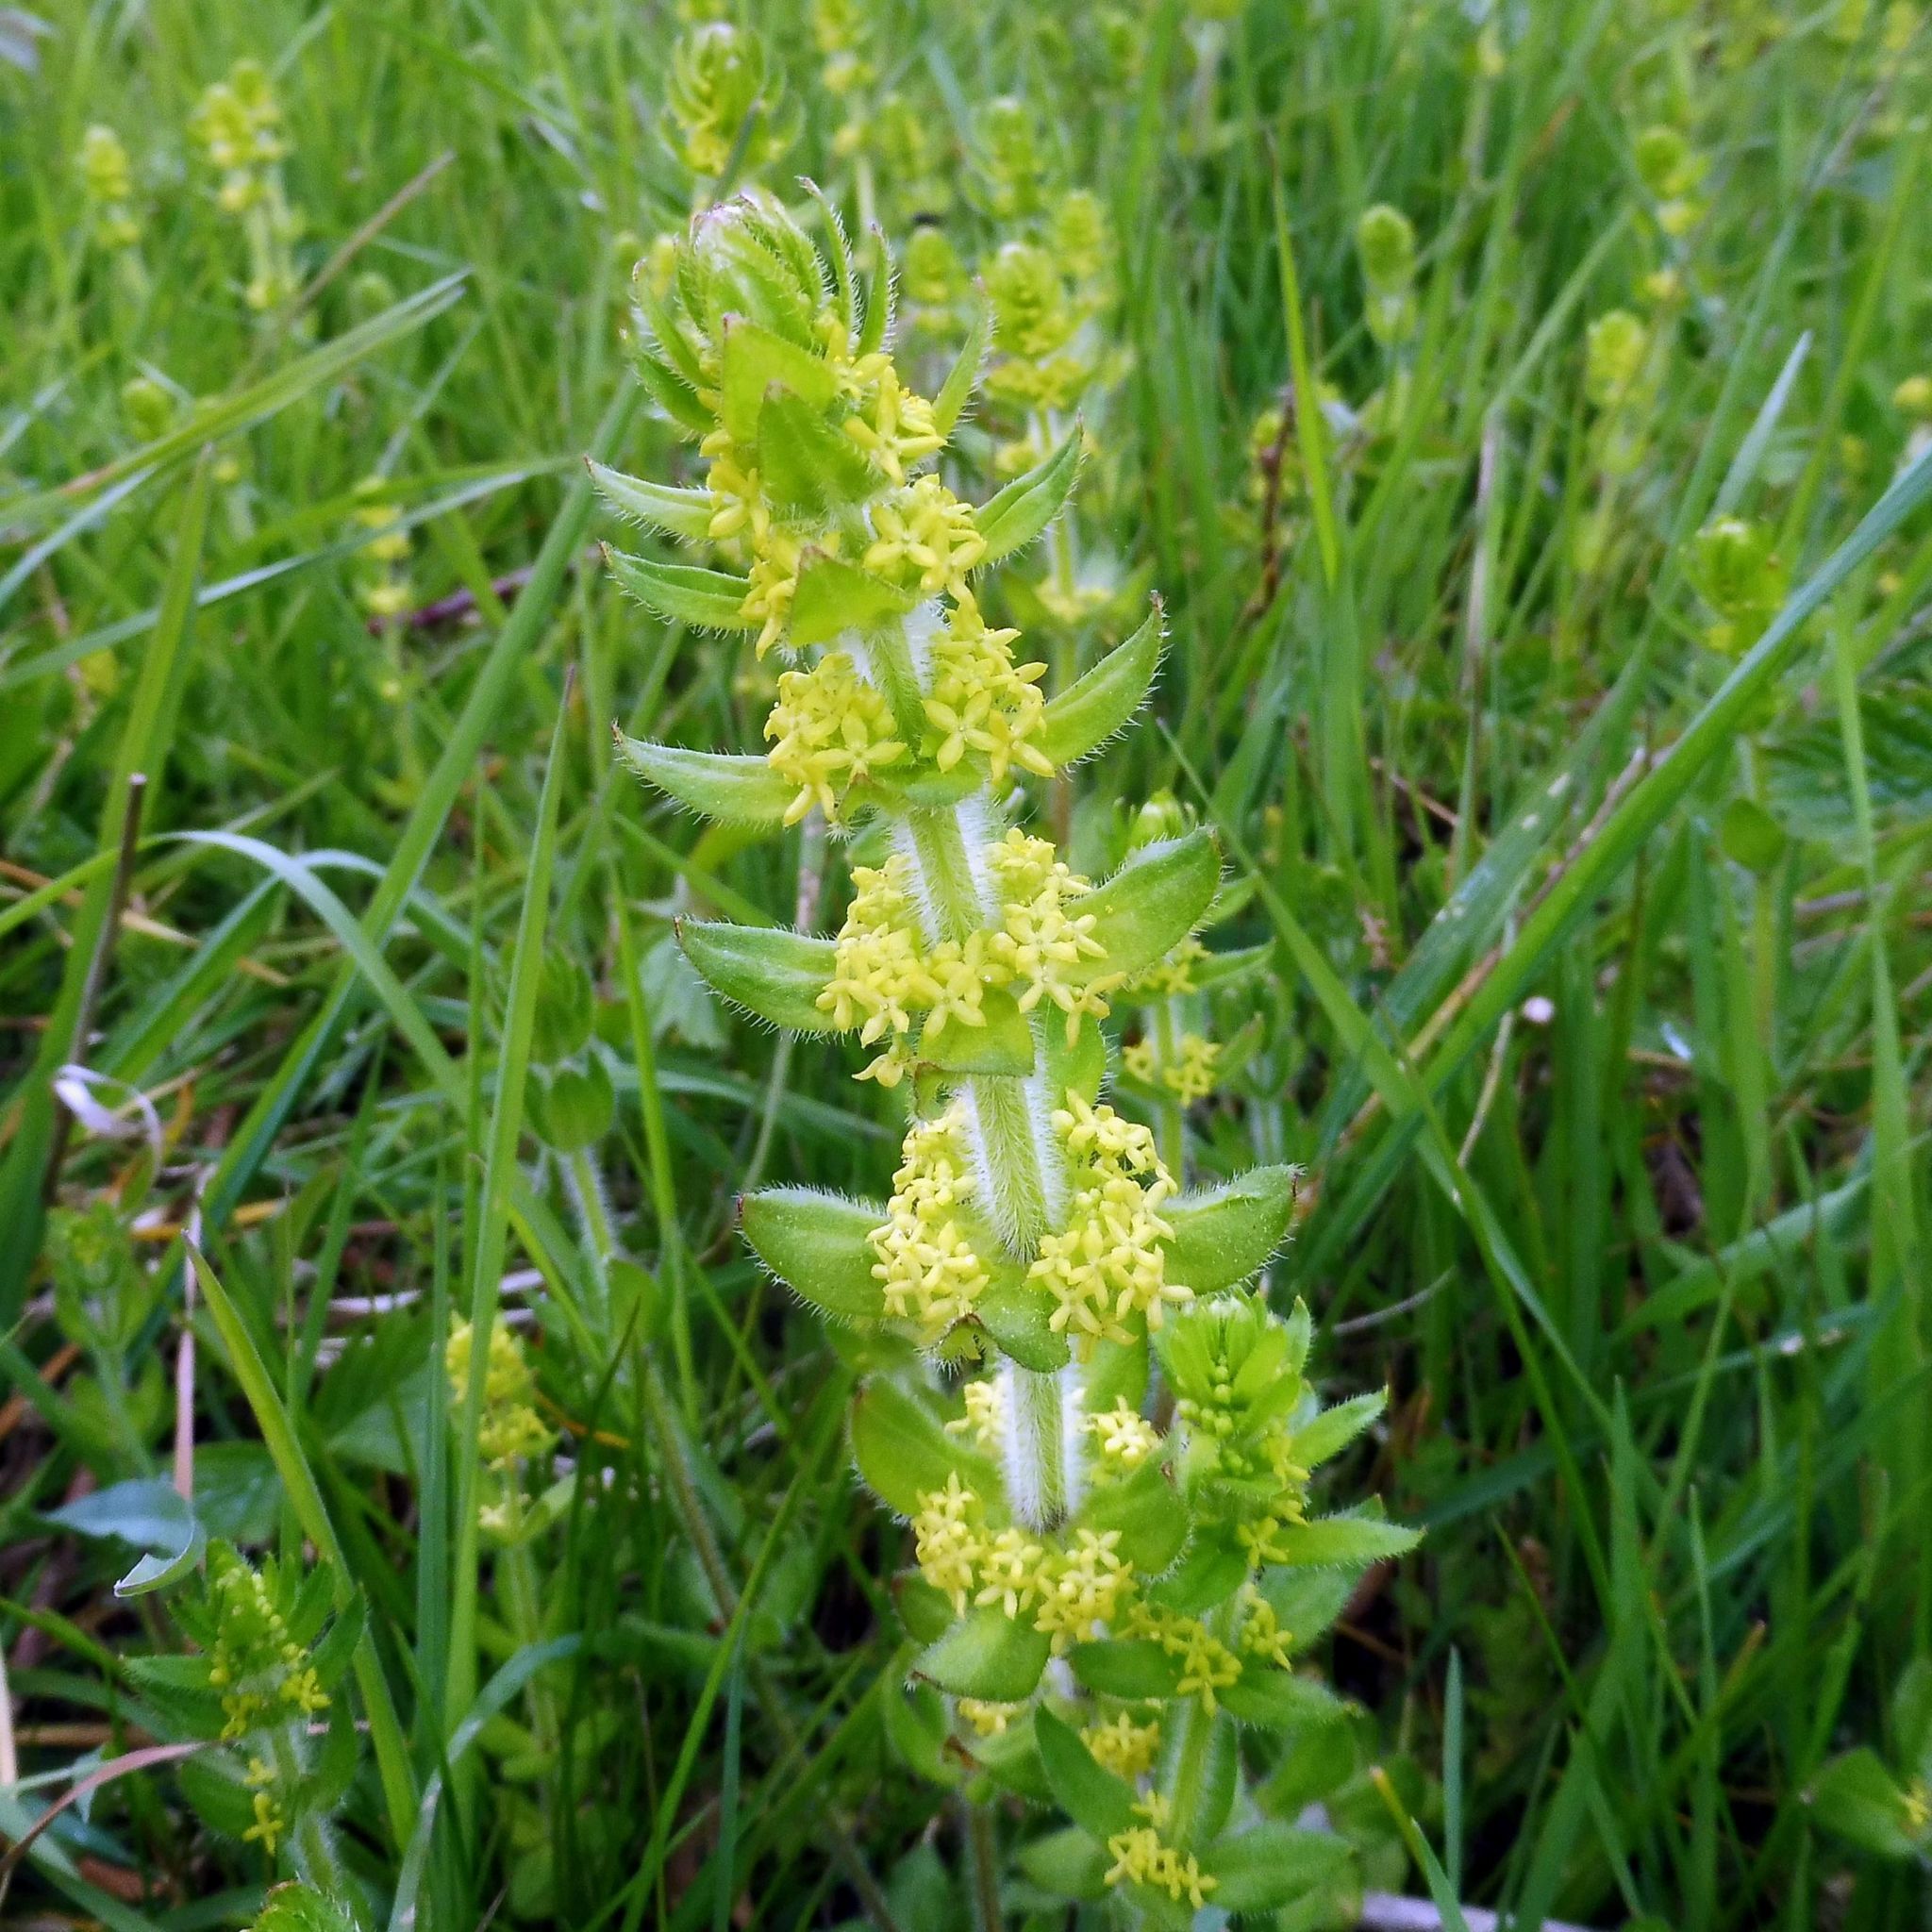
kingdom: Plantae
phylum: Tracheophyta
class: Magnoliopsida
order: Gentianales
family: Rubiaceae
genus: Cruciata
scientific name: Cruciata laevipes
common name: Crosswort
